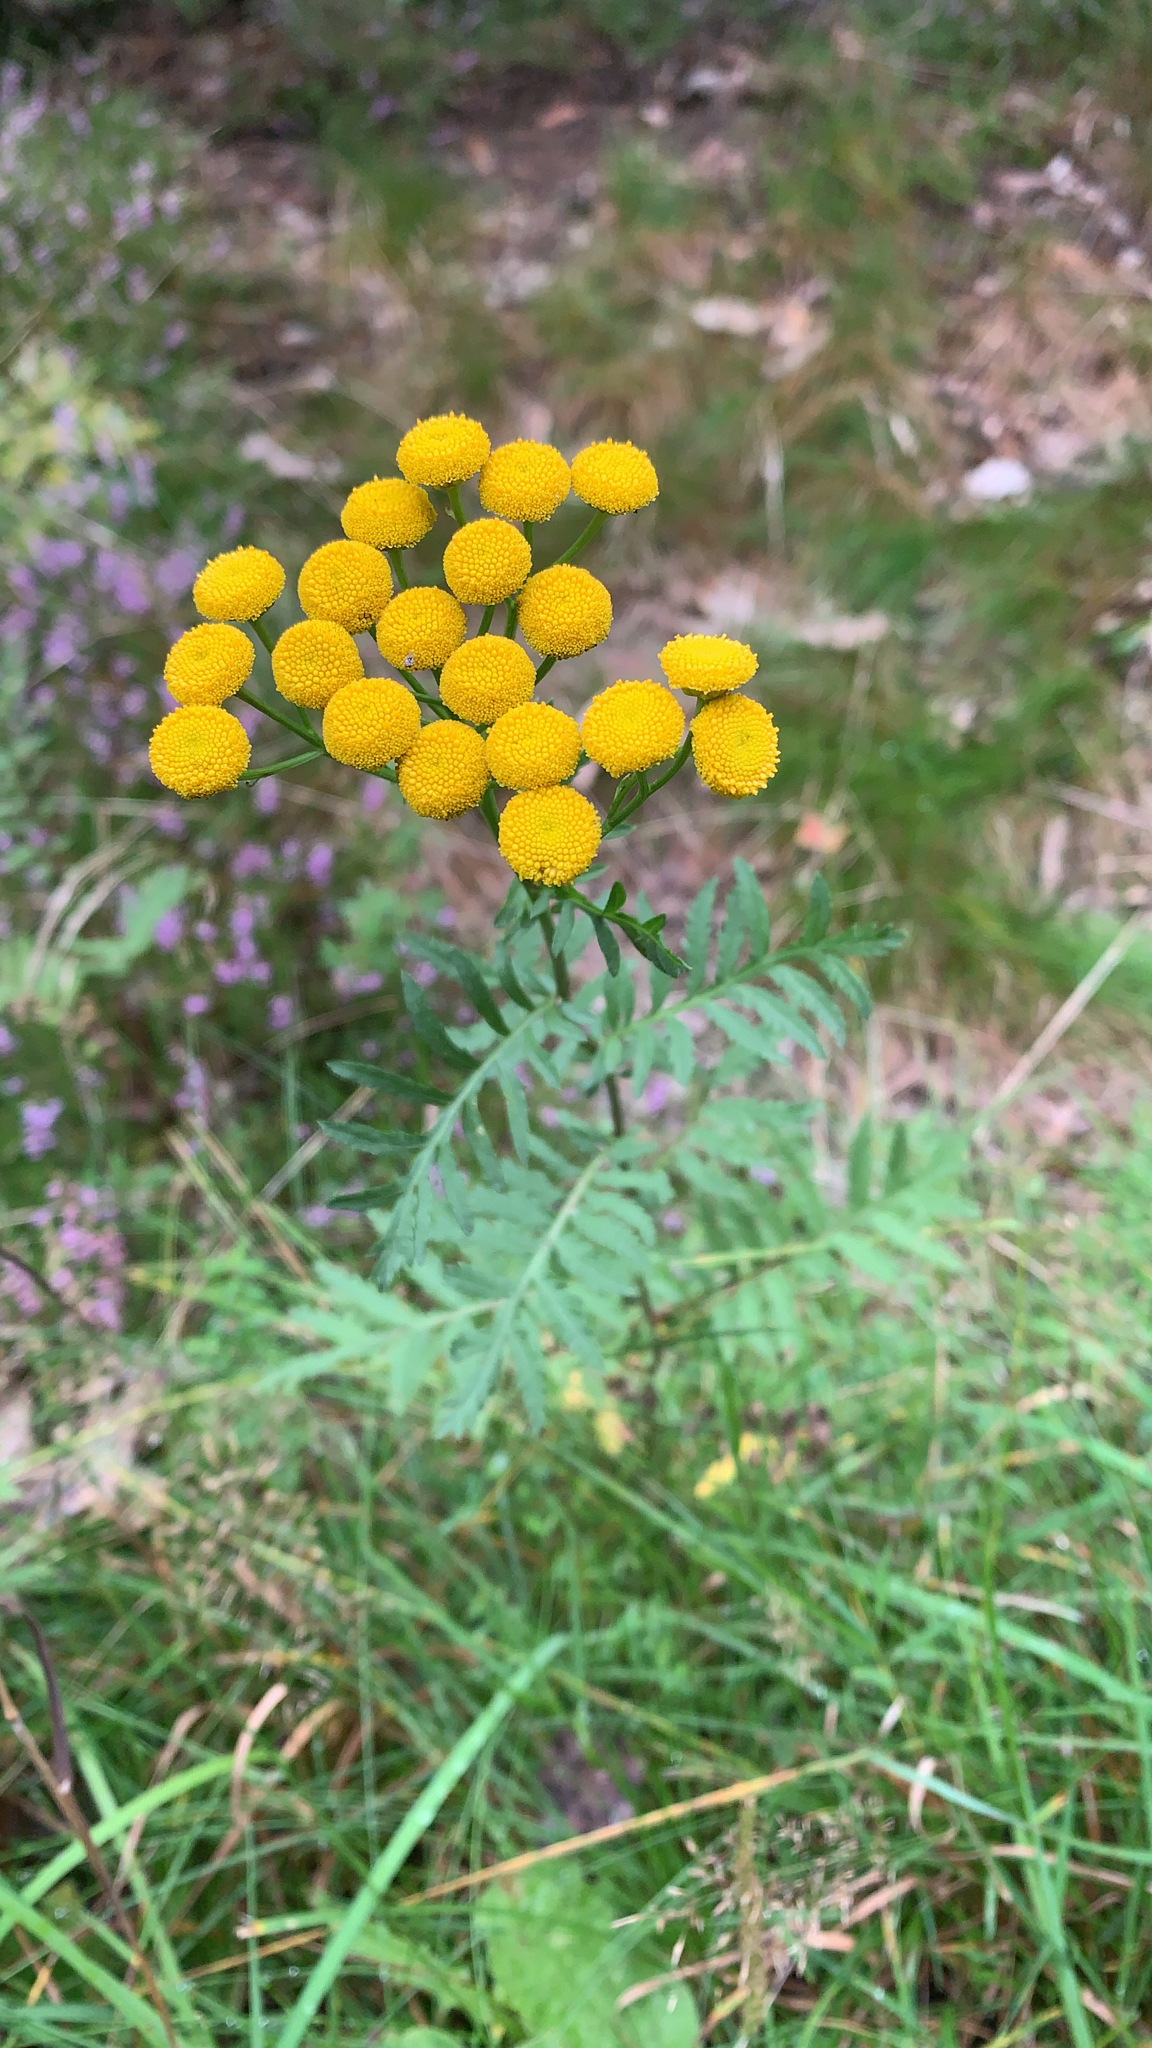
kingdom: Plantae
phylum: Tracheophyta
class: Magnoliopsida
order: Asterales
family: Asteraceae
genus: Tanacetum
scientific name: Tanacetum vulgare
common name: Common tansy
